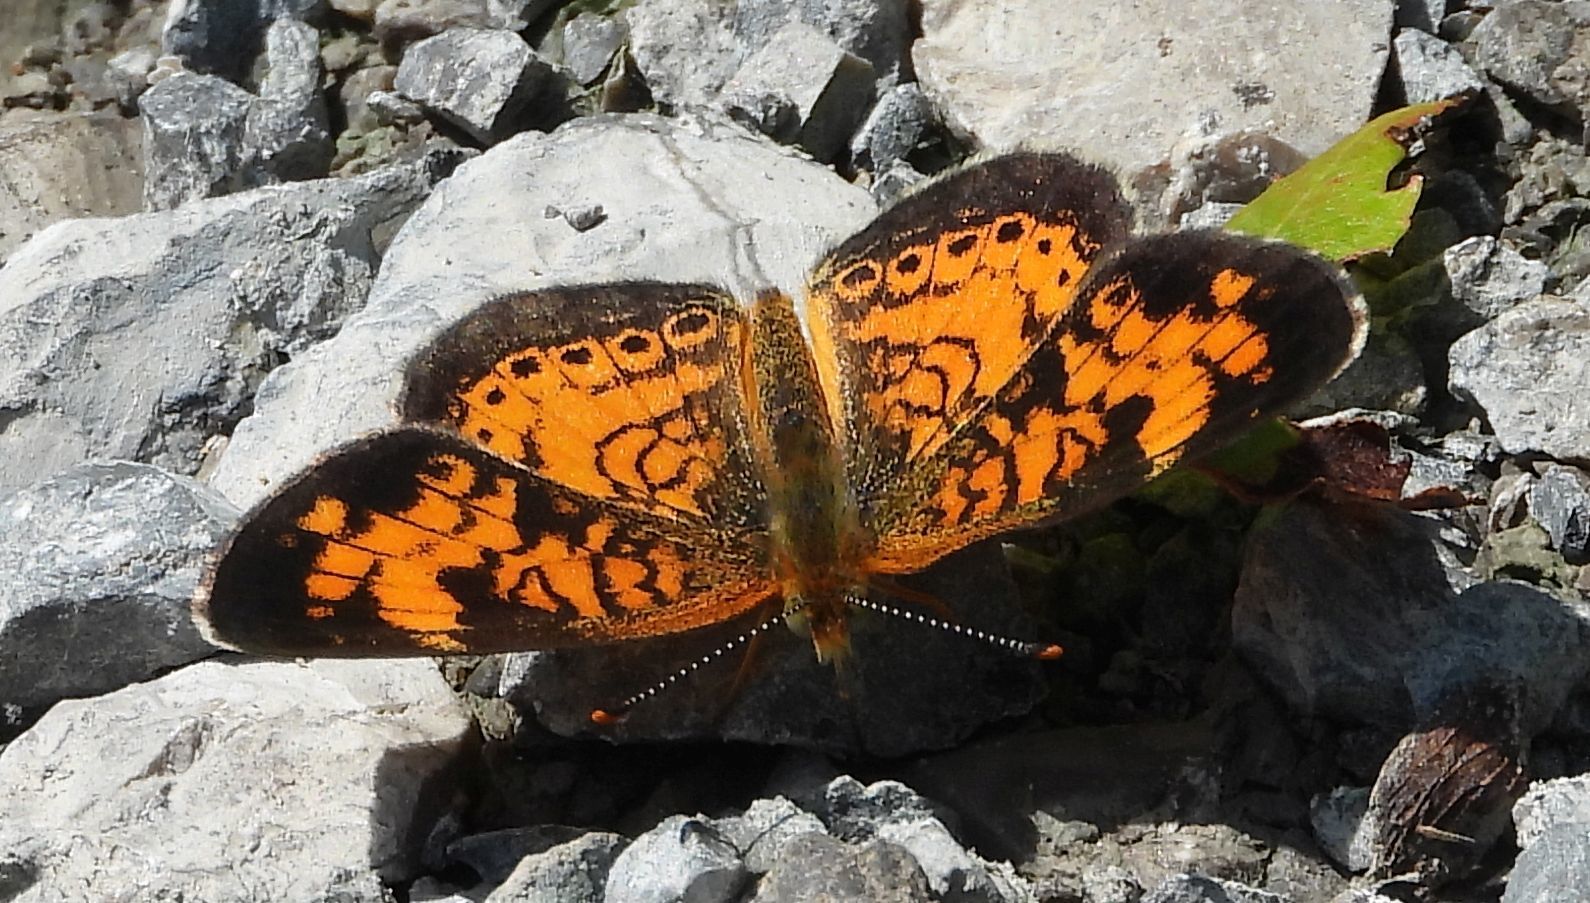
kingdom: Animalia
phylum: Arthropoda
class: Insecta
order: Lepidoptera
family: Nymphalidae
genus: Phyciodes
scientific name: Phyciodes tharos
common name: Pearl crescent
